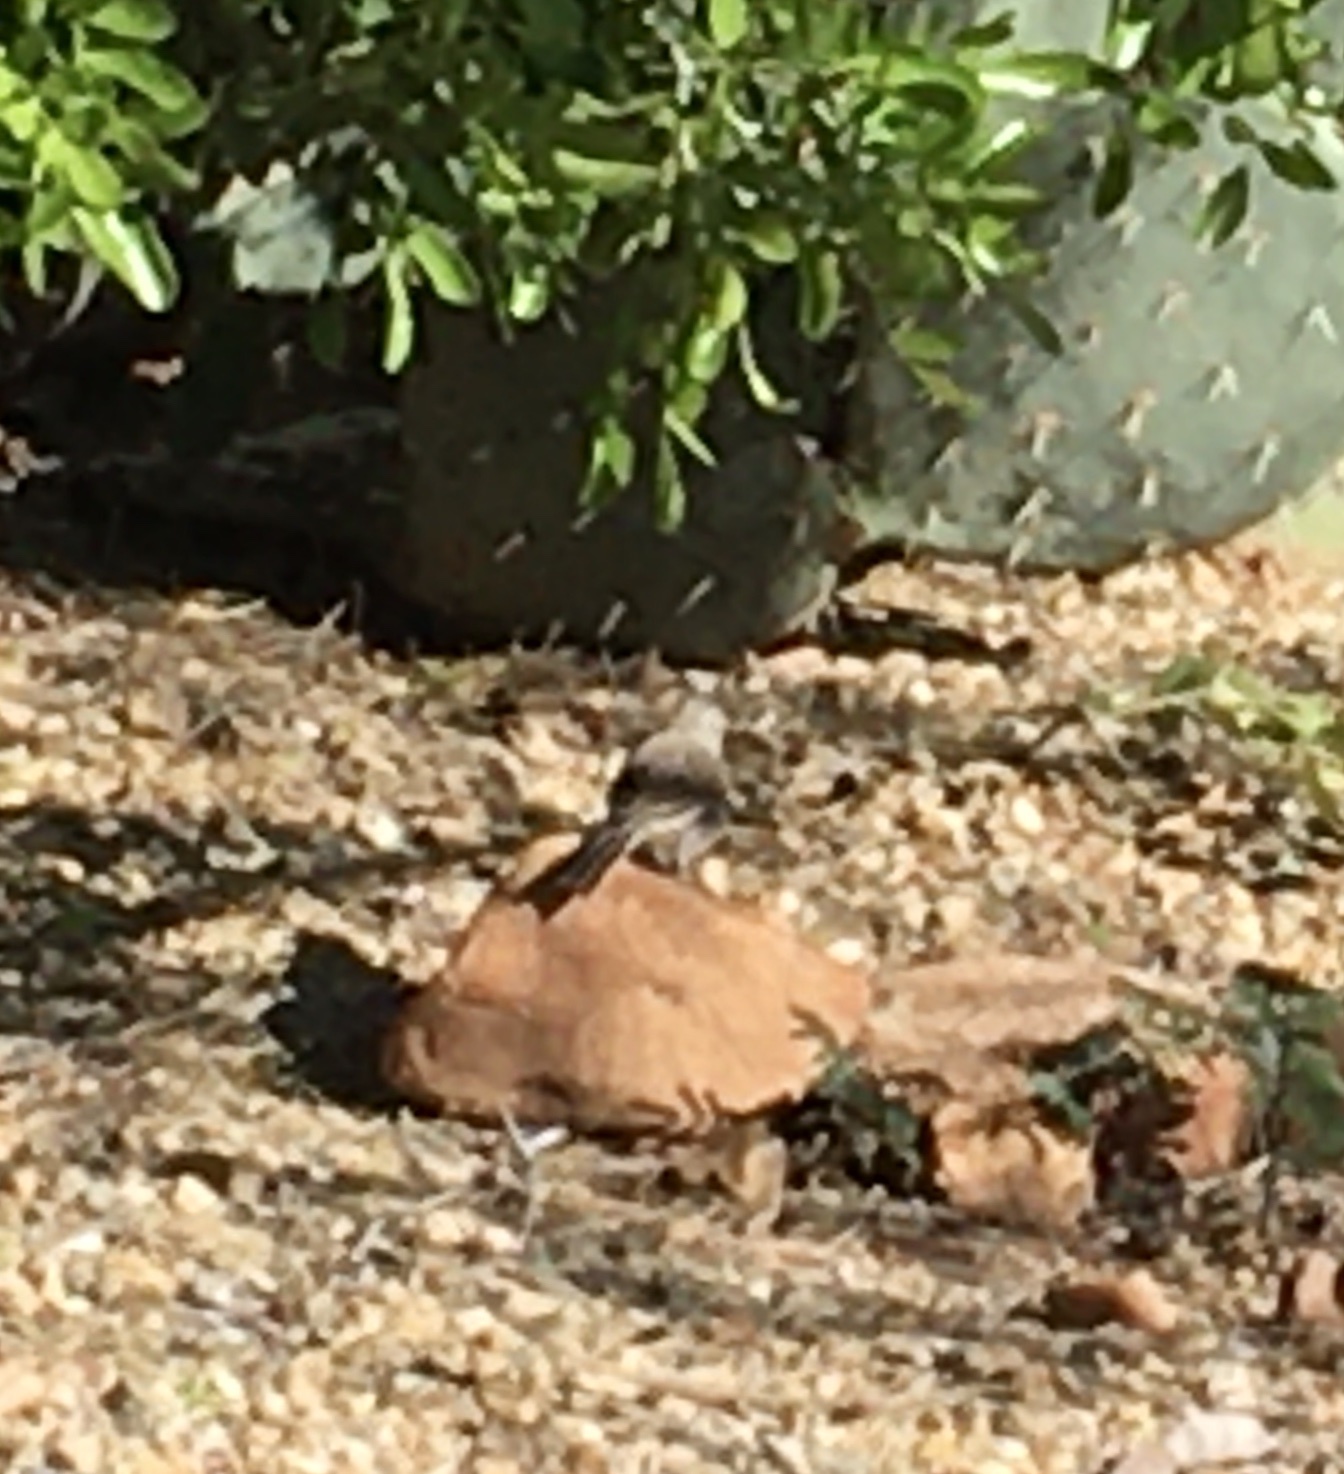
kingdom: Animalia
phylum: Chordata
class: Aves
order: Passeriformes
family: Passerellidae
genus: Amphispiza
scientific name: Amphispiza bilineata
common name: Black-throated sparrow
